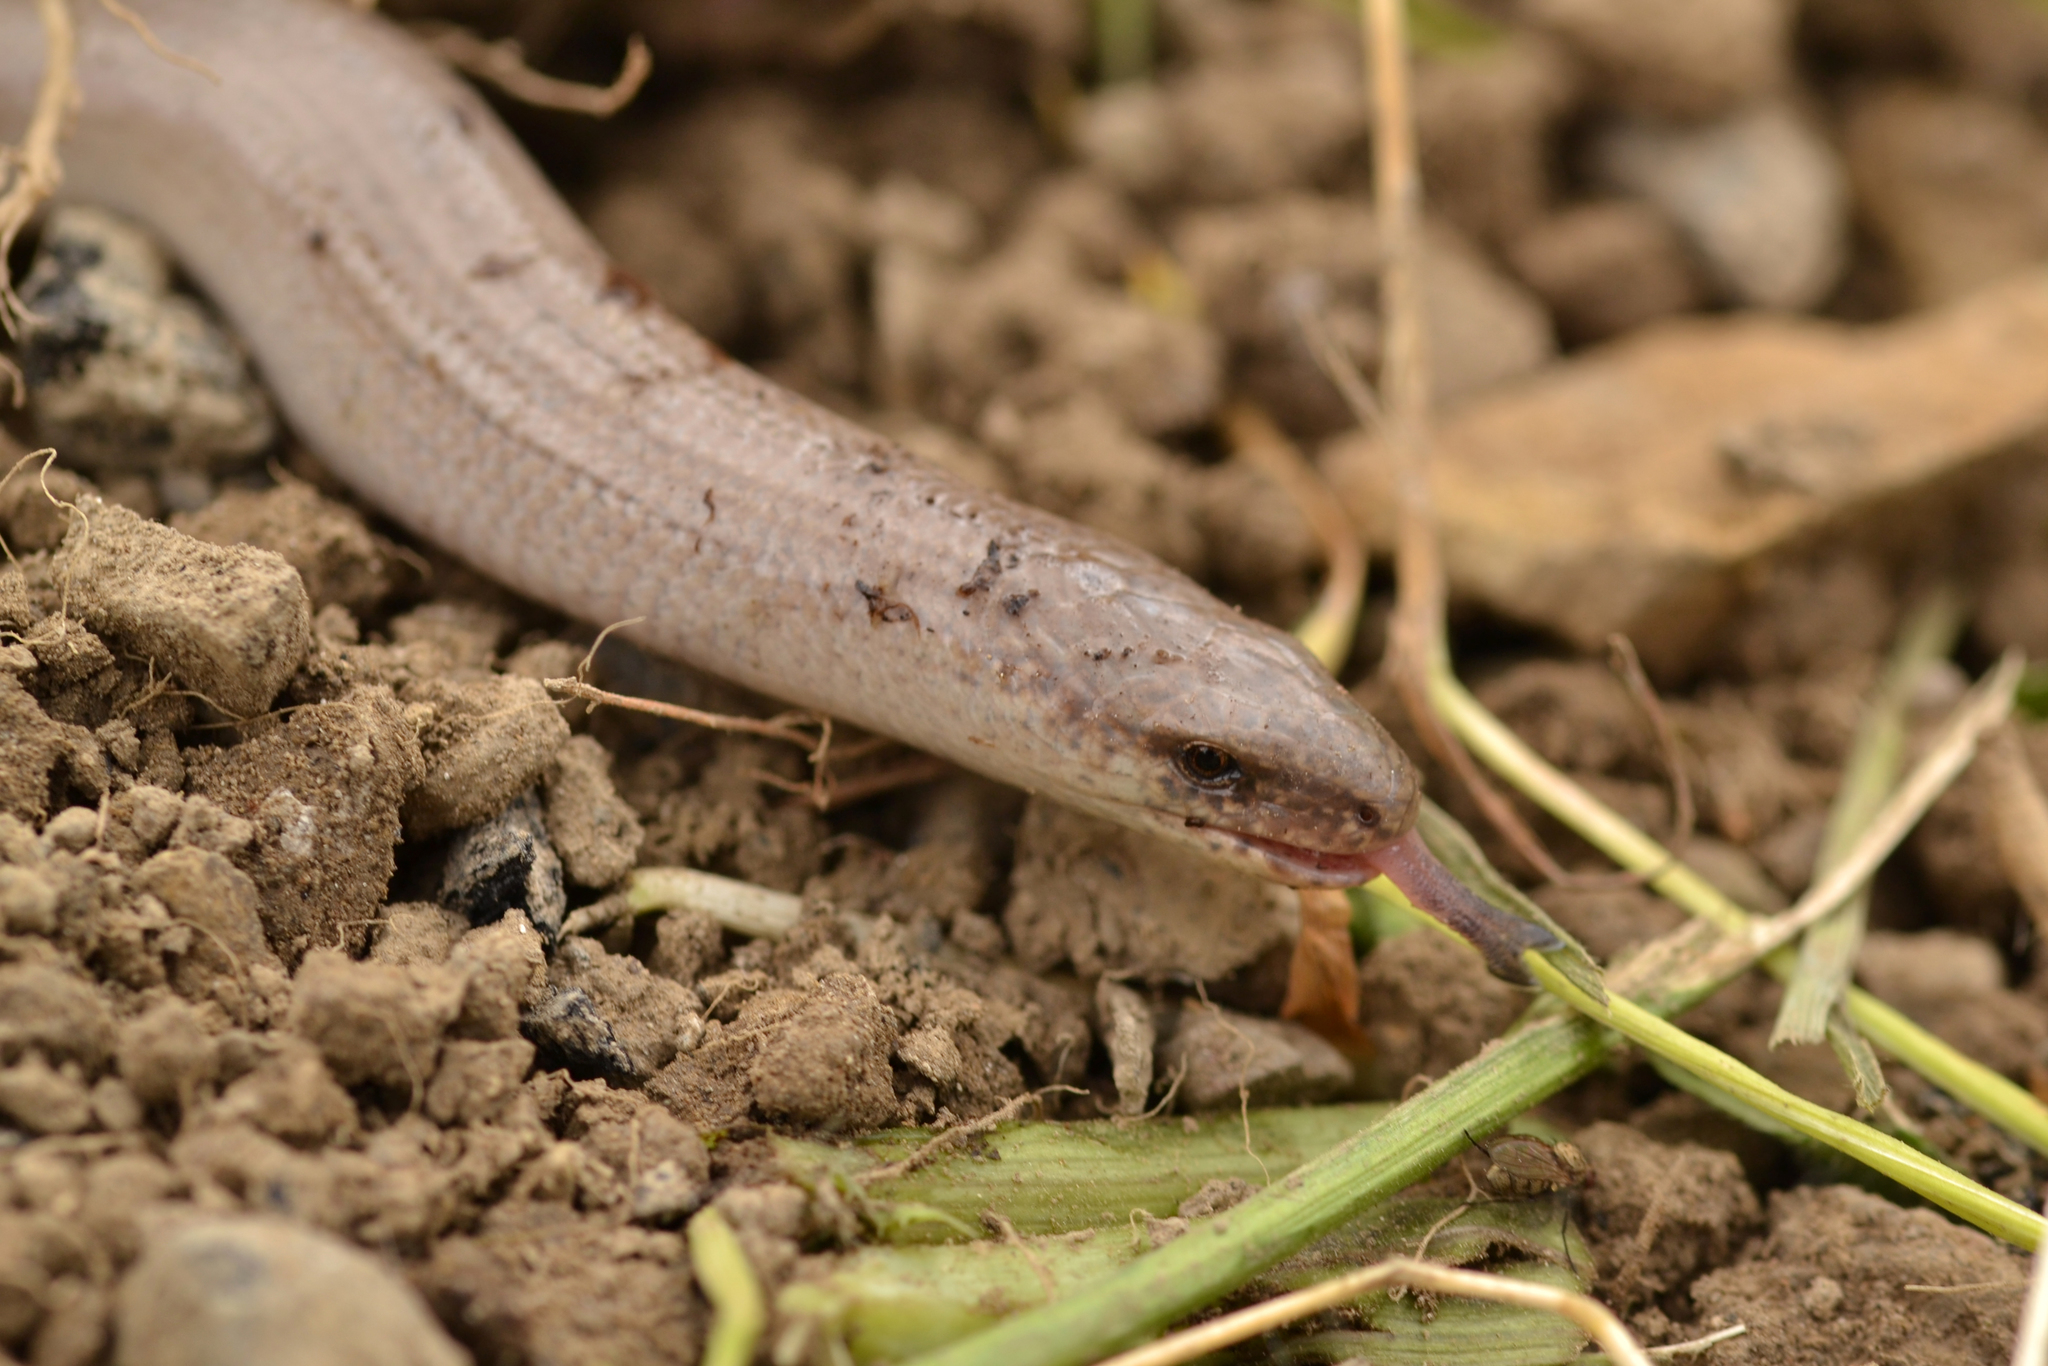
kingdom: Animalia
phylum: Chordata
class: Squamata
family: Anguidae
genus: Anguis
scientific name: Anguis veronensis
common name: Italian slow worm
